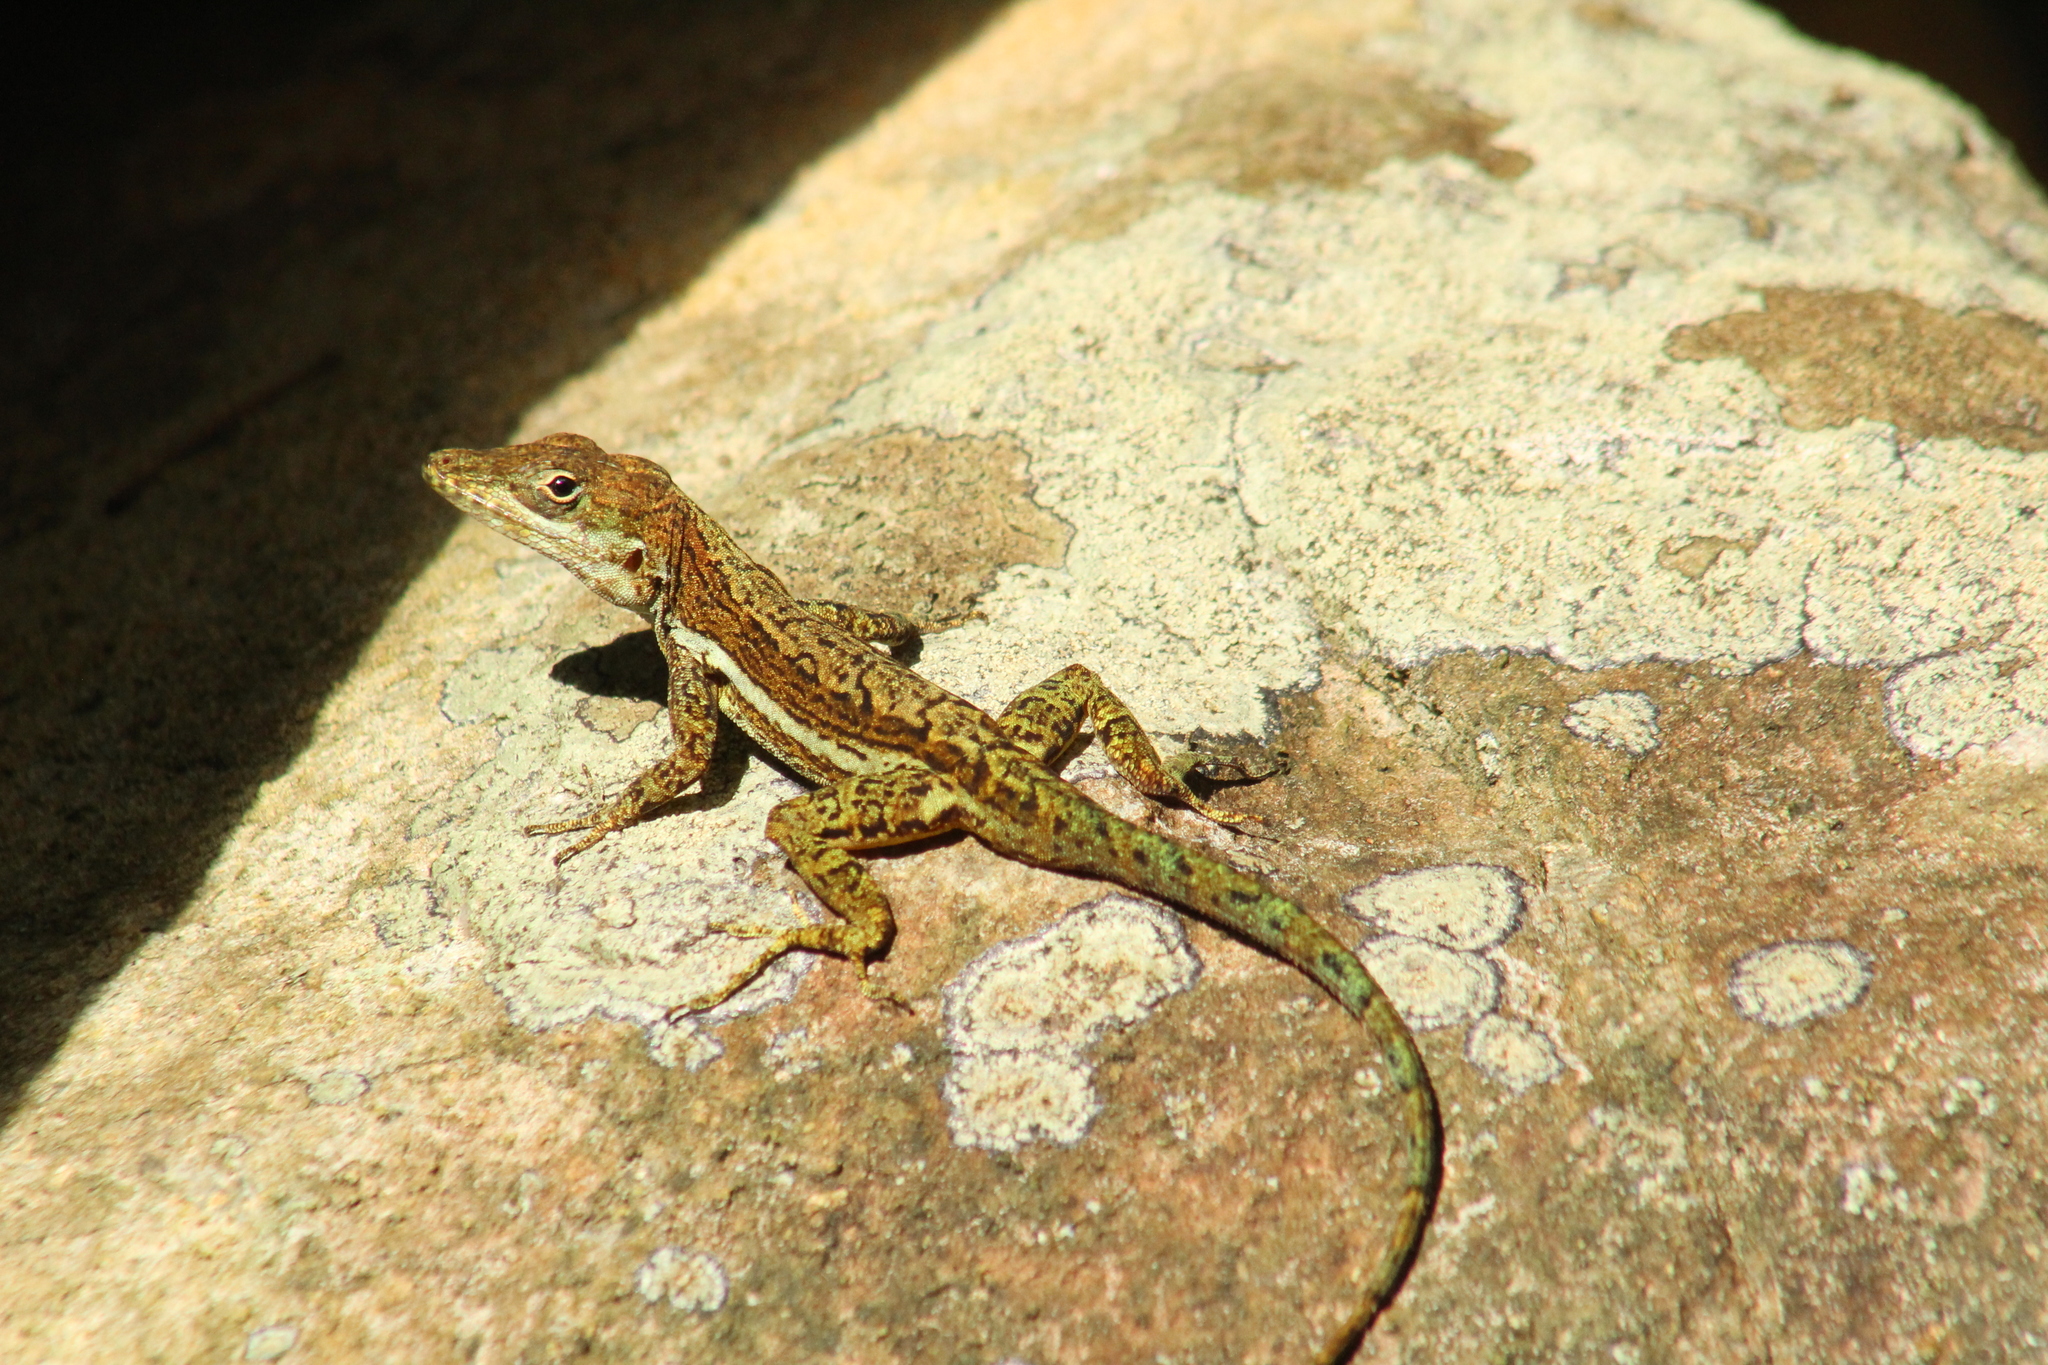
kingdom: Animalia
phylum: Chordata
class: Squamata
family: Dactyloidae
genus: Anolis
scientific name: Anolis gingivinus
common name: Anguilla anole
